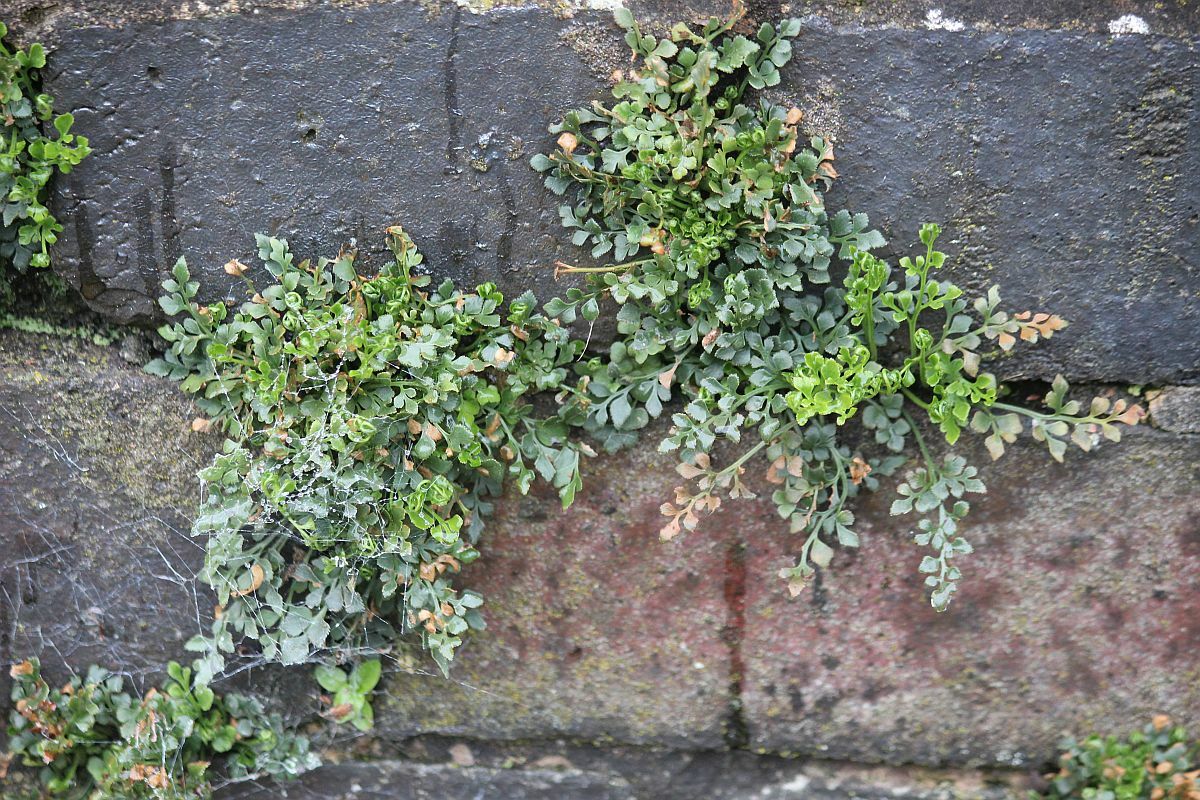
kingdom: Plantae
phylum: Tracheophyta
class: Polypodiopsida
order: Polypodiales
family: Aspleniaceae
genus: Asplenium
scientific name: Asplenium ruta-muraria
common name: Wall-rue
